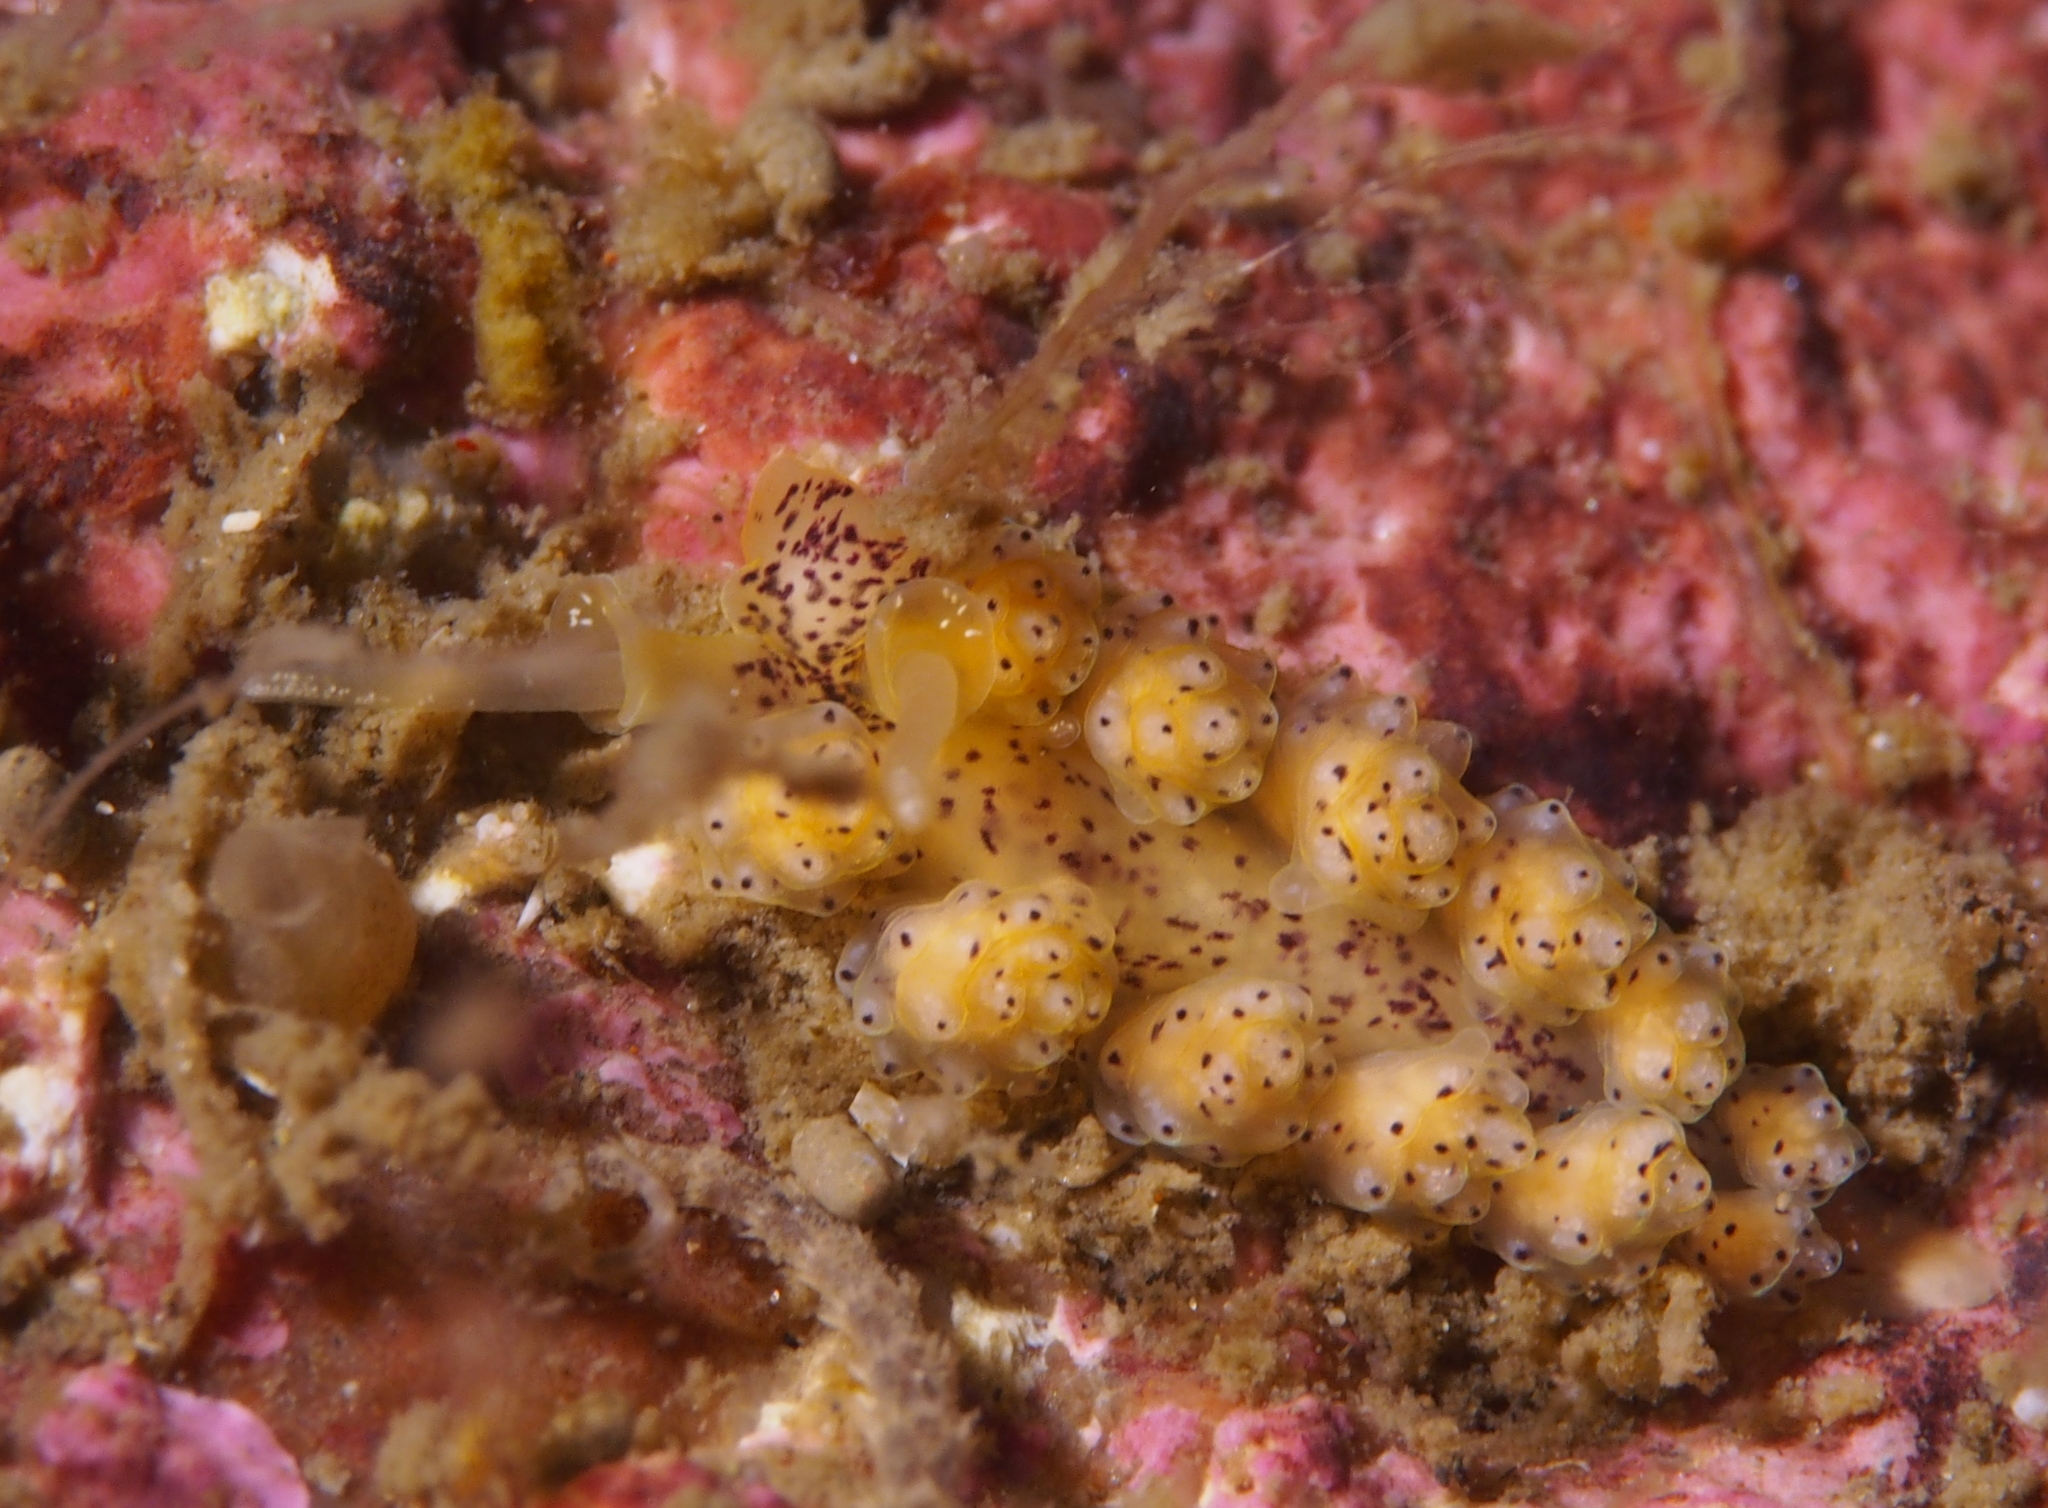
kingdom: Animalia
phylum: Mollusca
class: Gastropoda
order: Nudibranchia
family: Dotidae
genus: Doto
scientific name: Doto dunnei
